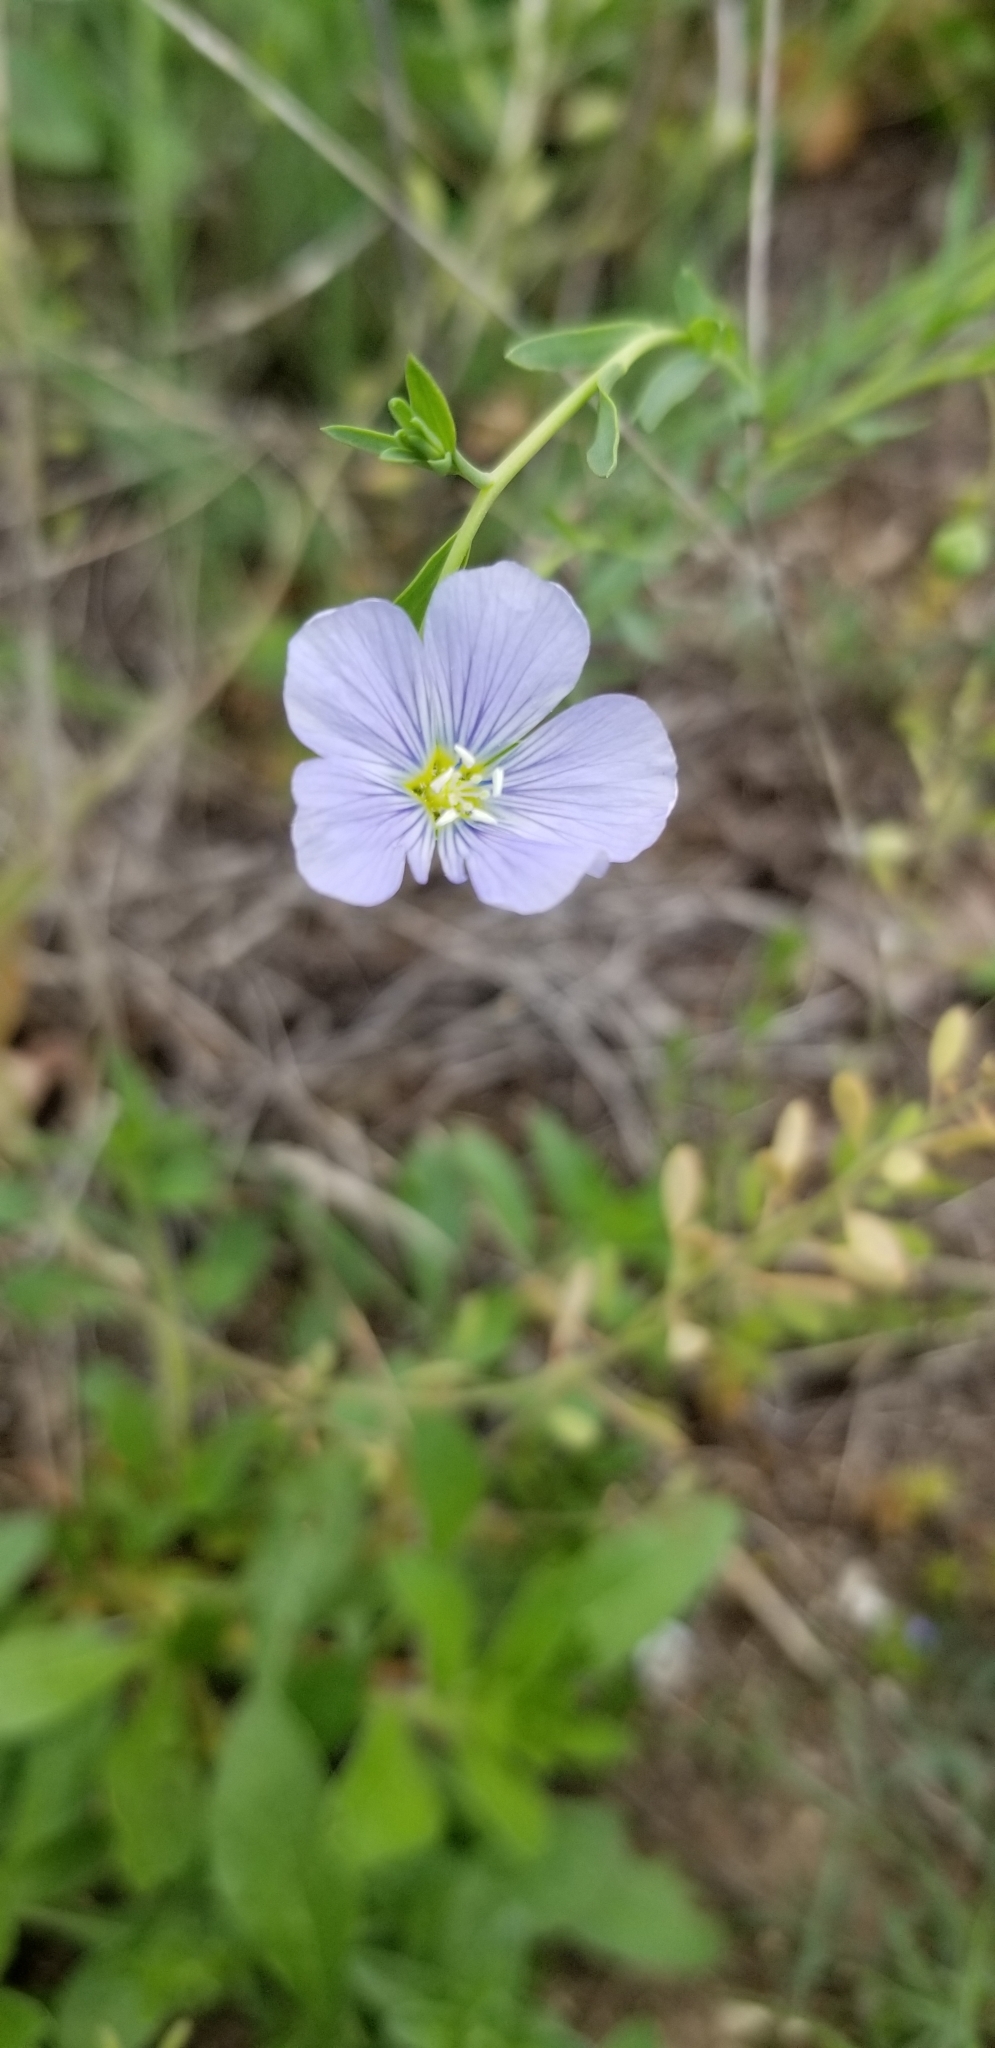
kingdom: Plantae
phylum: Tracheophyta
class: Magnoliopsida
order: Malpighiales
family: Linaceae
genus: Linum
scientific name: Linum pratense
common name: Norton's flax
